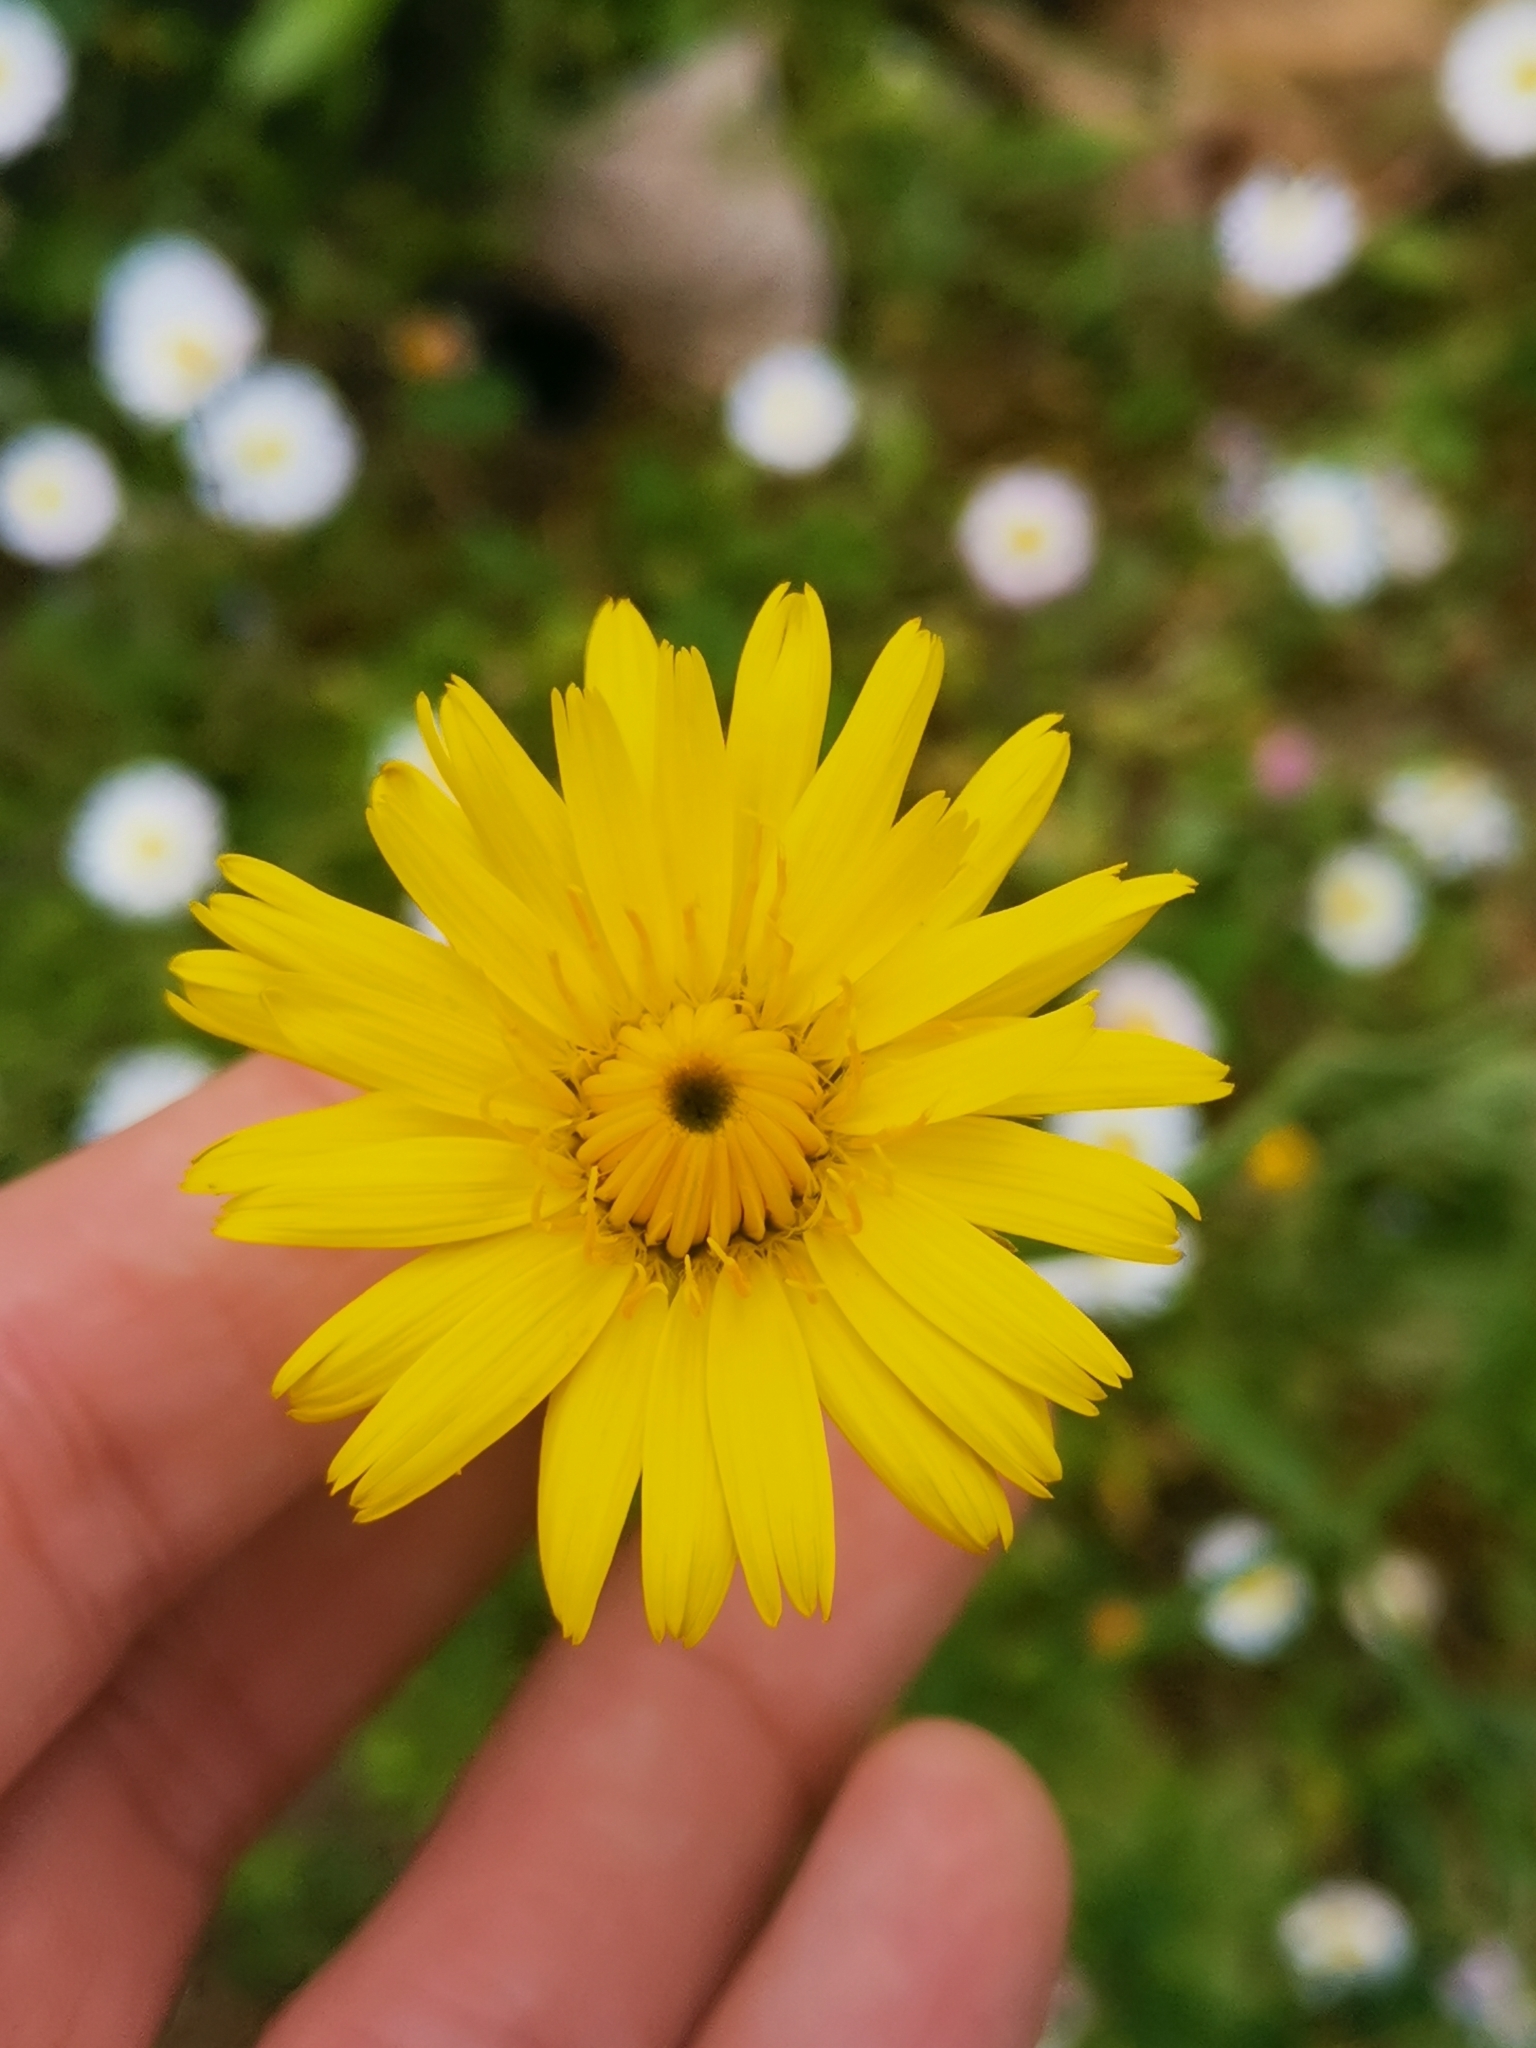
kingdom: Plantae
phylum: Tracheophyta
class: Magnoliopsida
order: Asterales
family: Asteraceae
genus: Hypochaeris
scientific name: Hypochaeris radicata
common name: Flatweed
